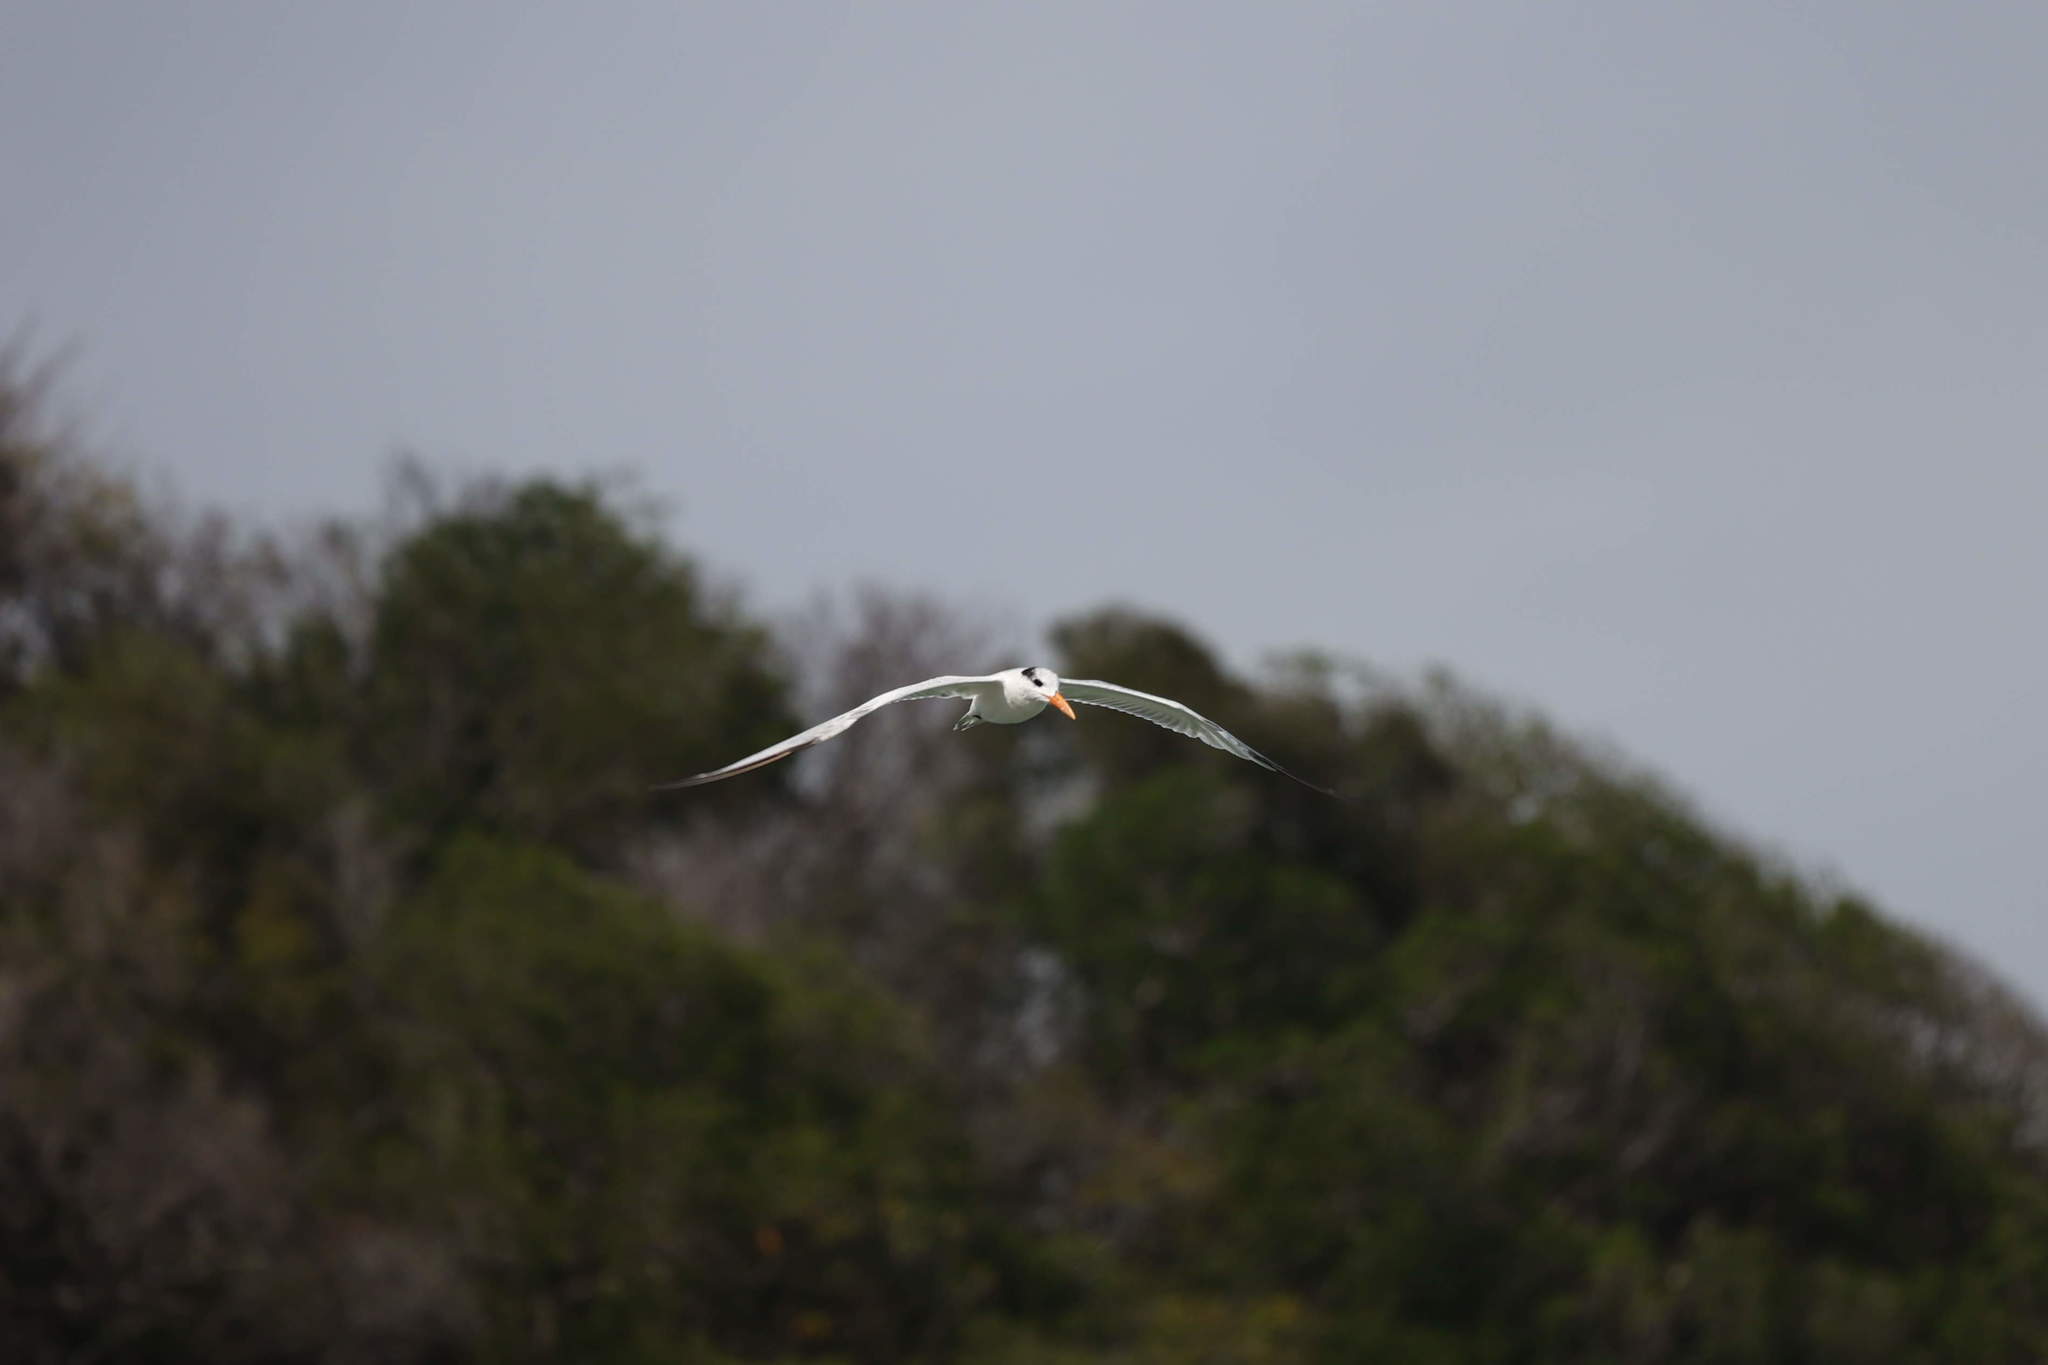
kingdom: Animalia
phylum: Chordata
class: Aves
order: Charadriiformes
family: Laridae
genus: Thalasseus
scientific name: Thalasseus maximus
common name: Royal tern
